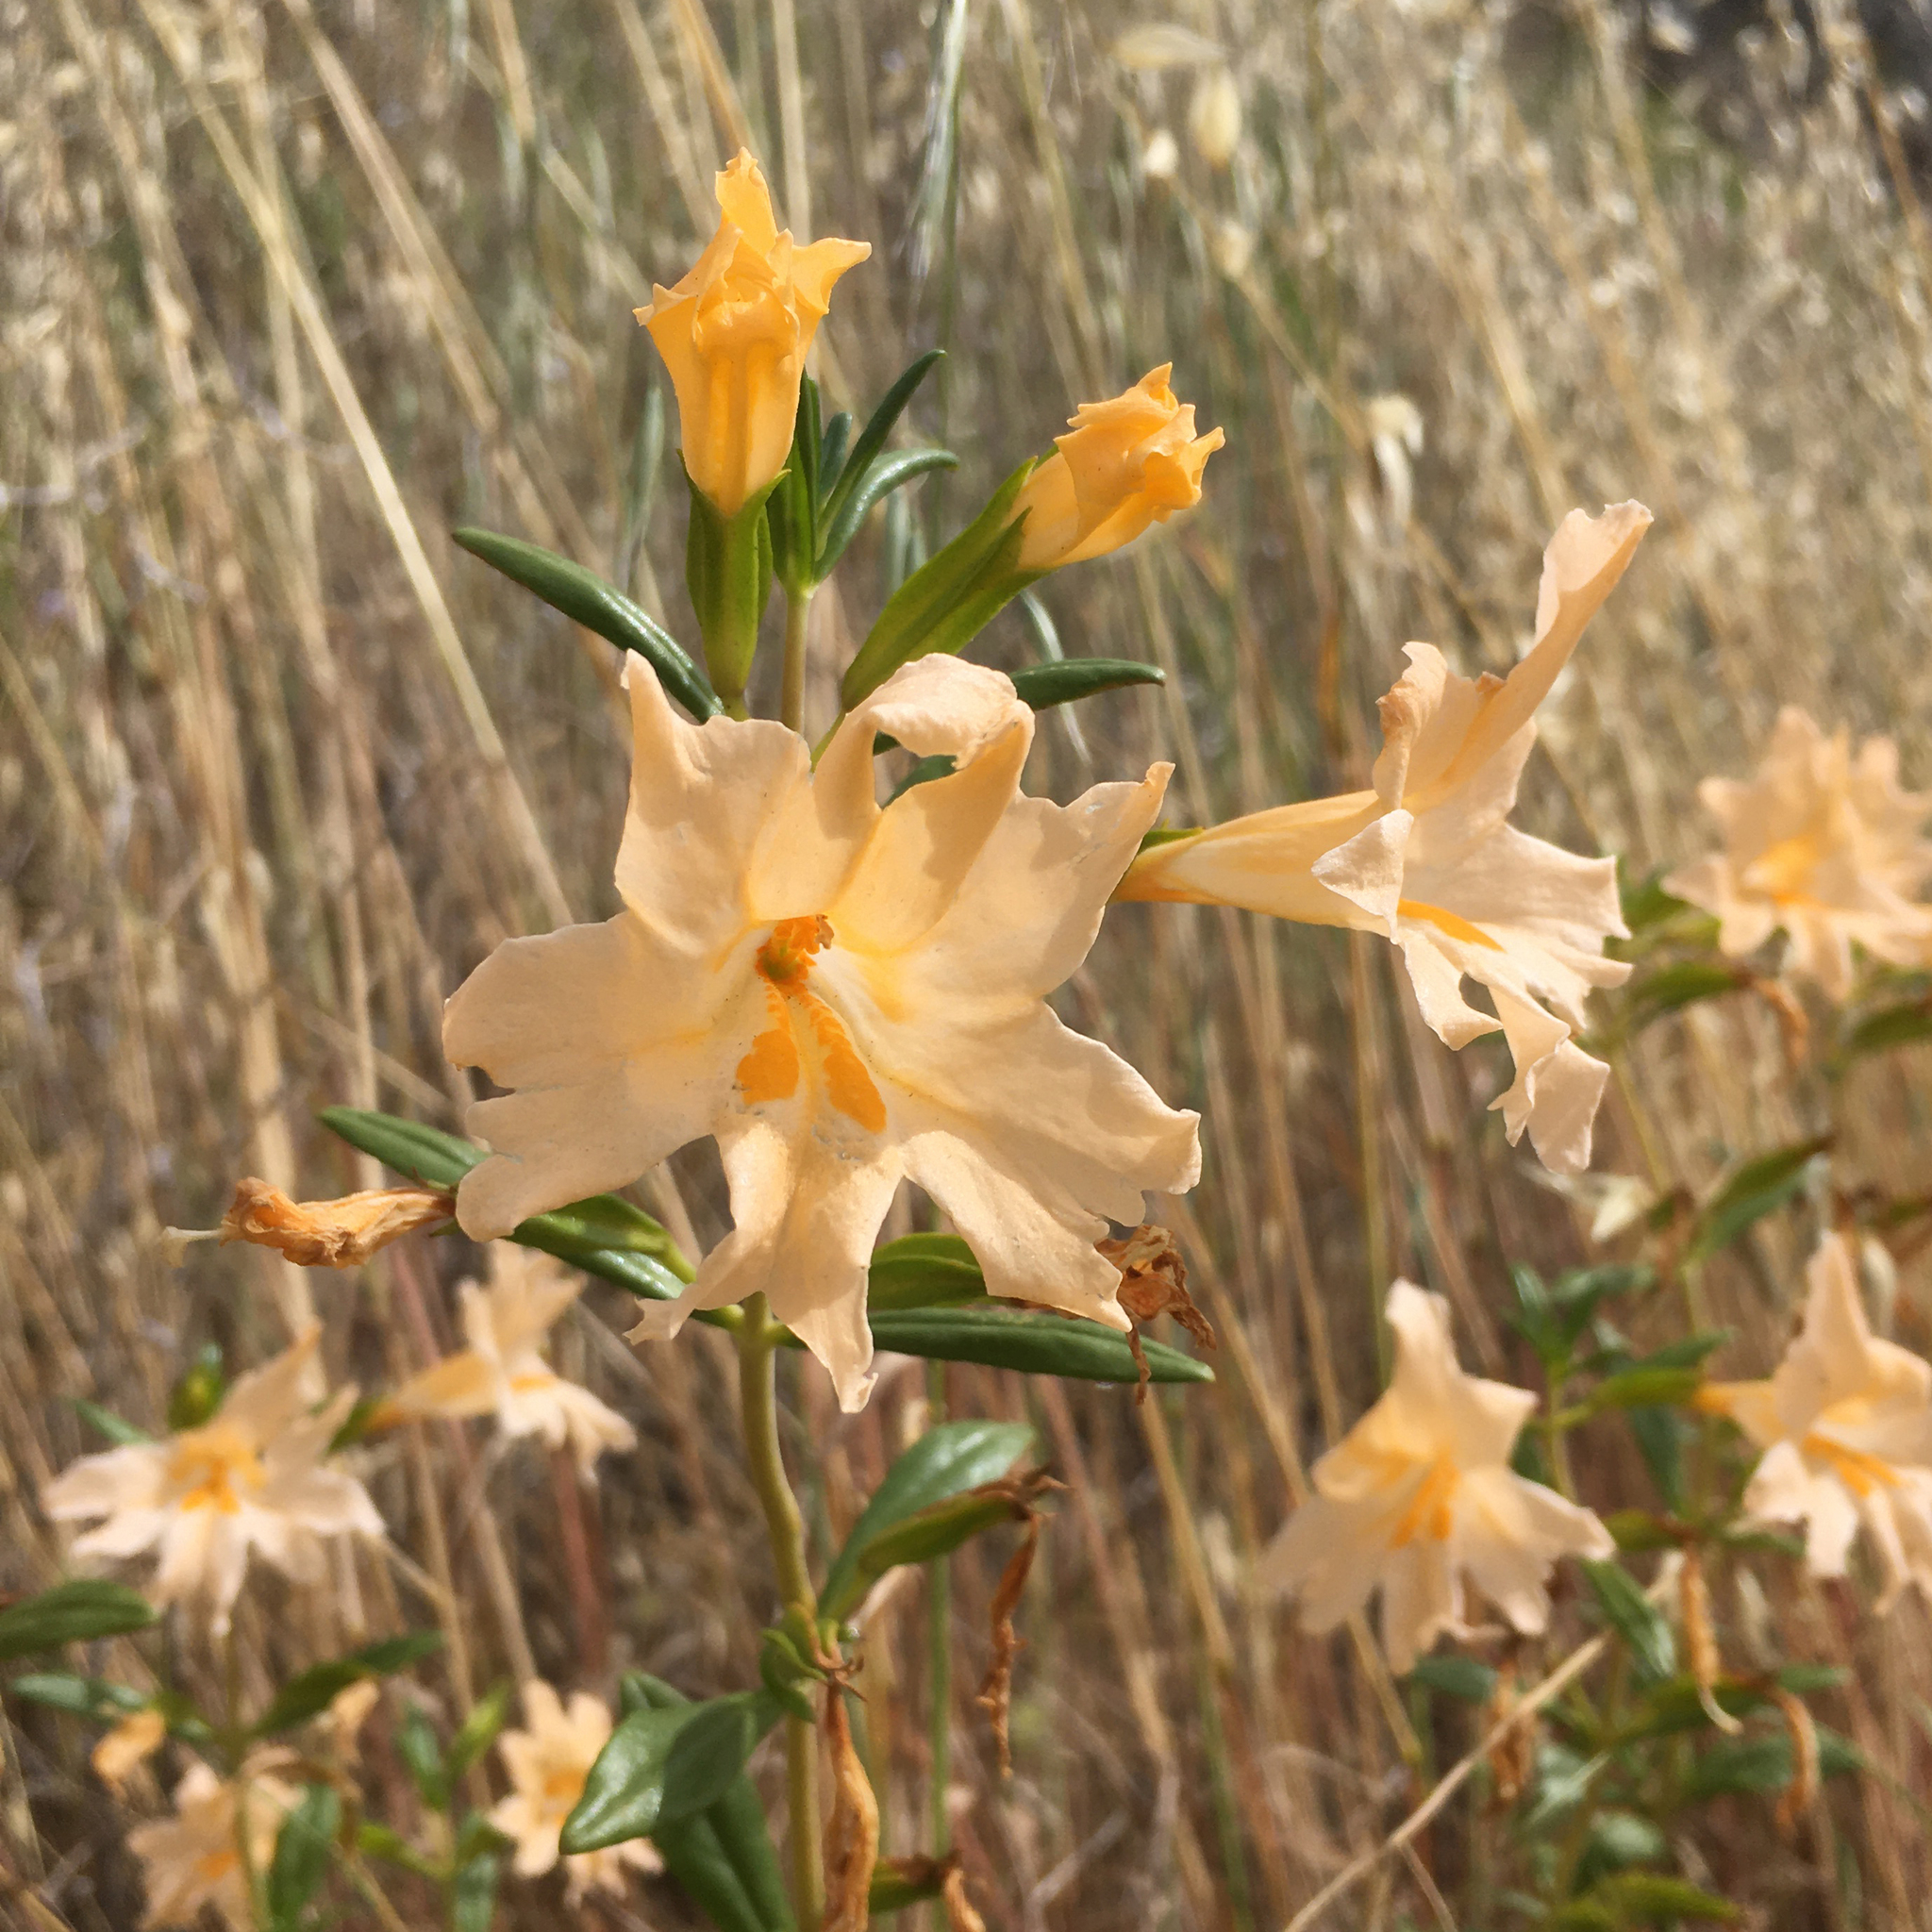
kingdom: Plantae
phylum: Tracheophyta
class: Magnoliopsida
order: Lamiales
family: Phrymaceae
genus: Diplacus
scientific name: Diplacus grandiflorus
